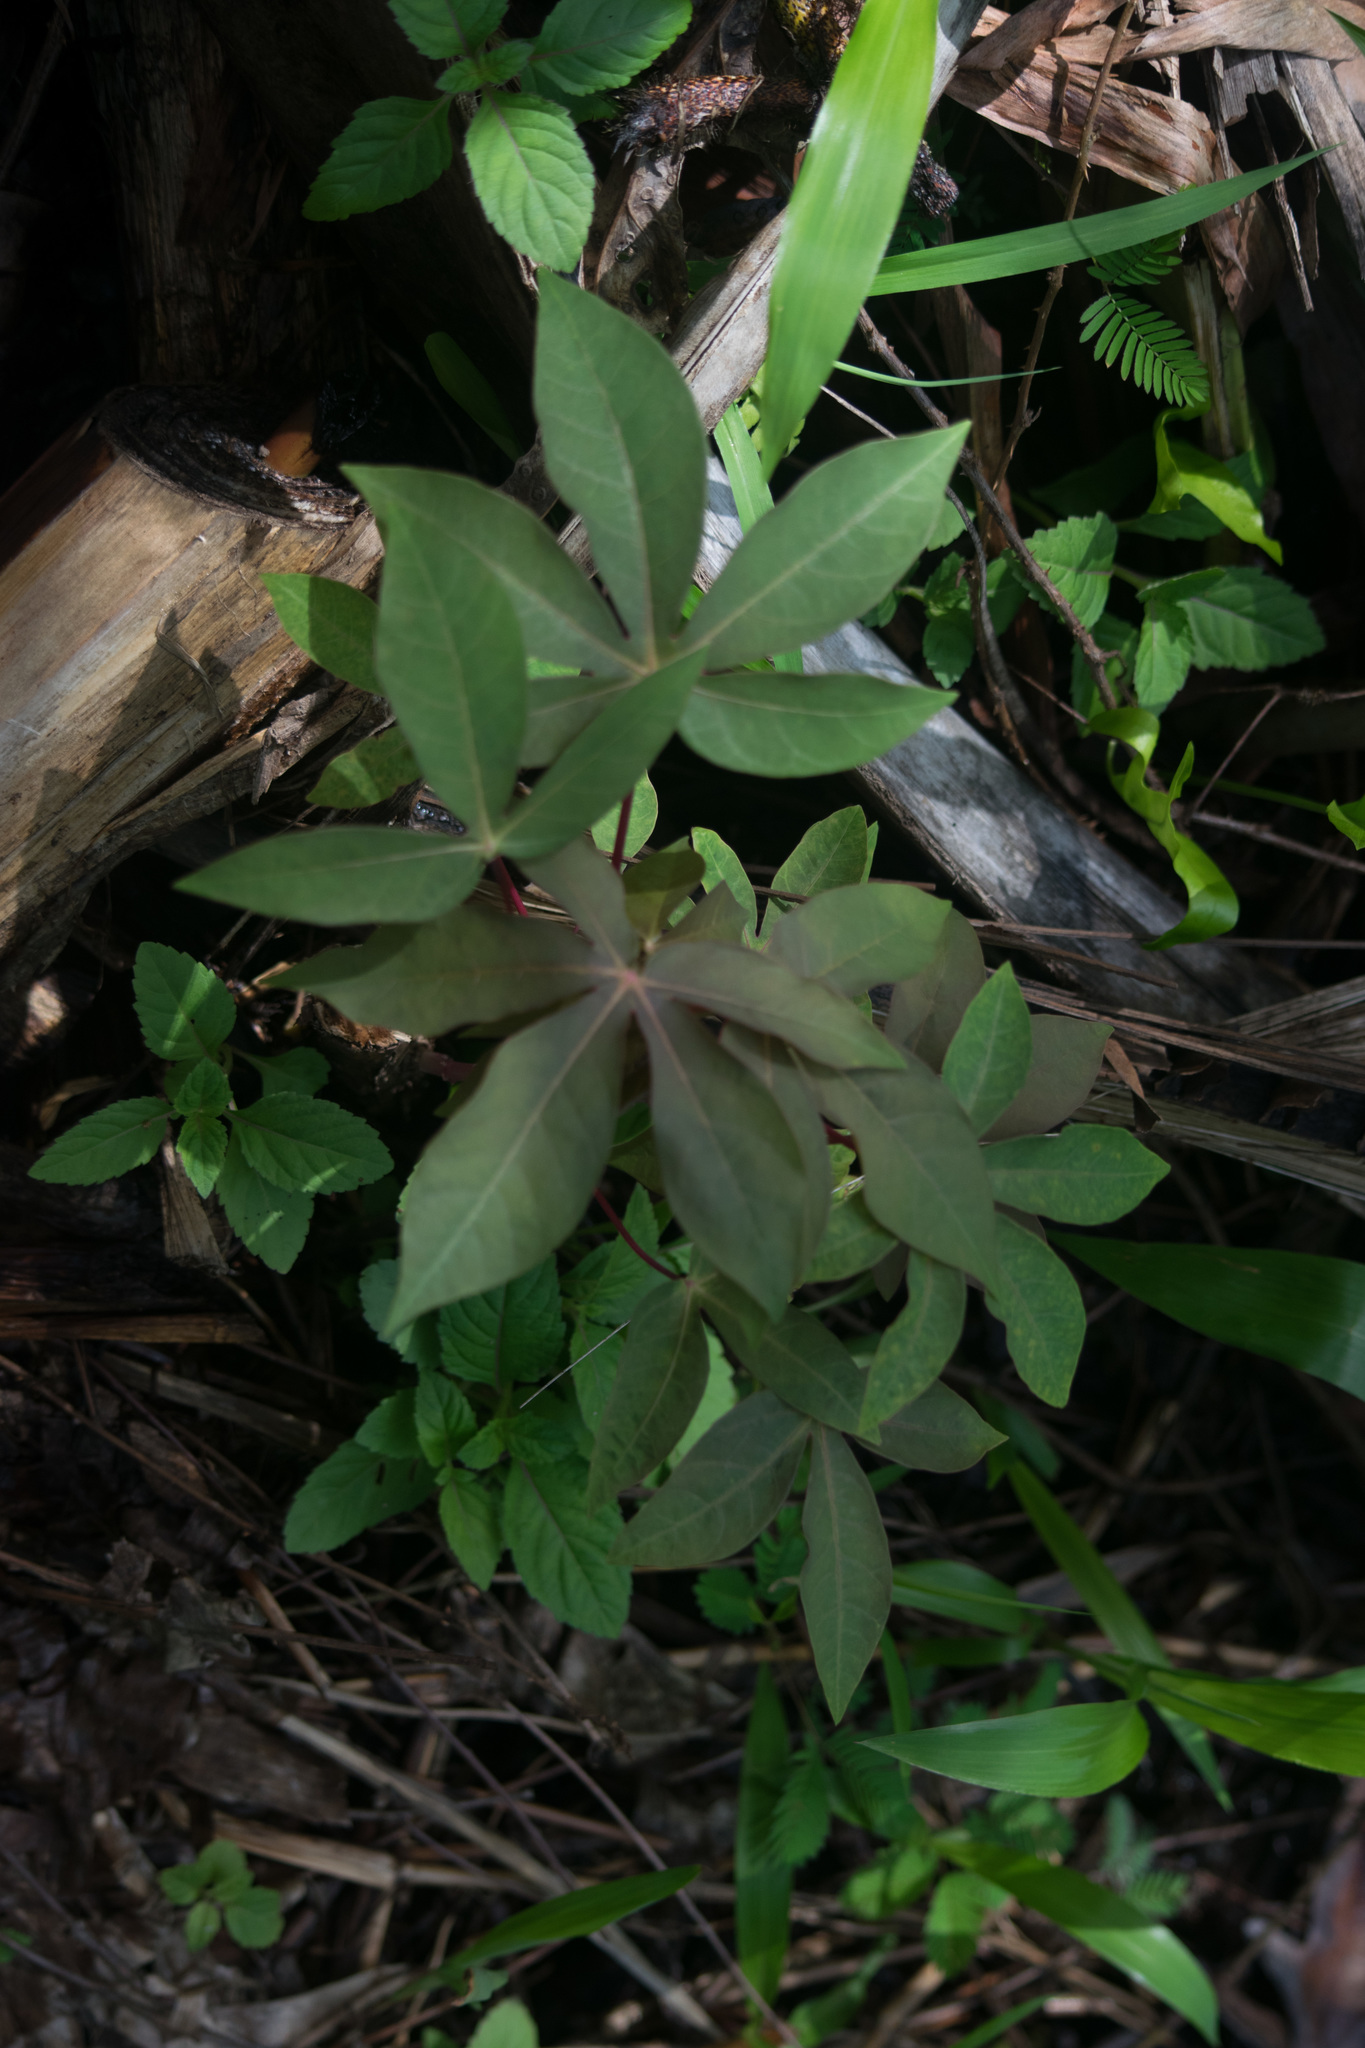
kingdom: Plantae
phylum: Tracheophyta
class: Magnoliopsida
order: Solanales
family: Convolvulaceae
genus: Ipomoea
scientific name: Ipomoea cairica
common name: Mile a minute vine
